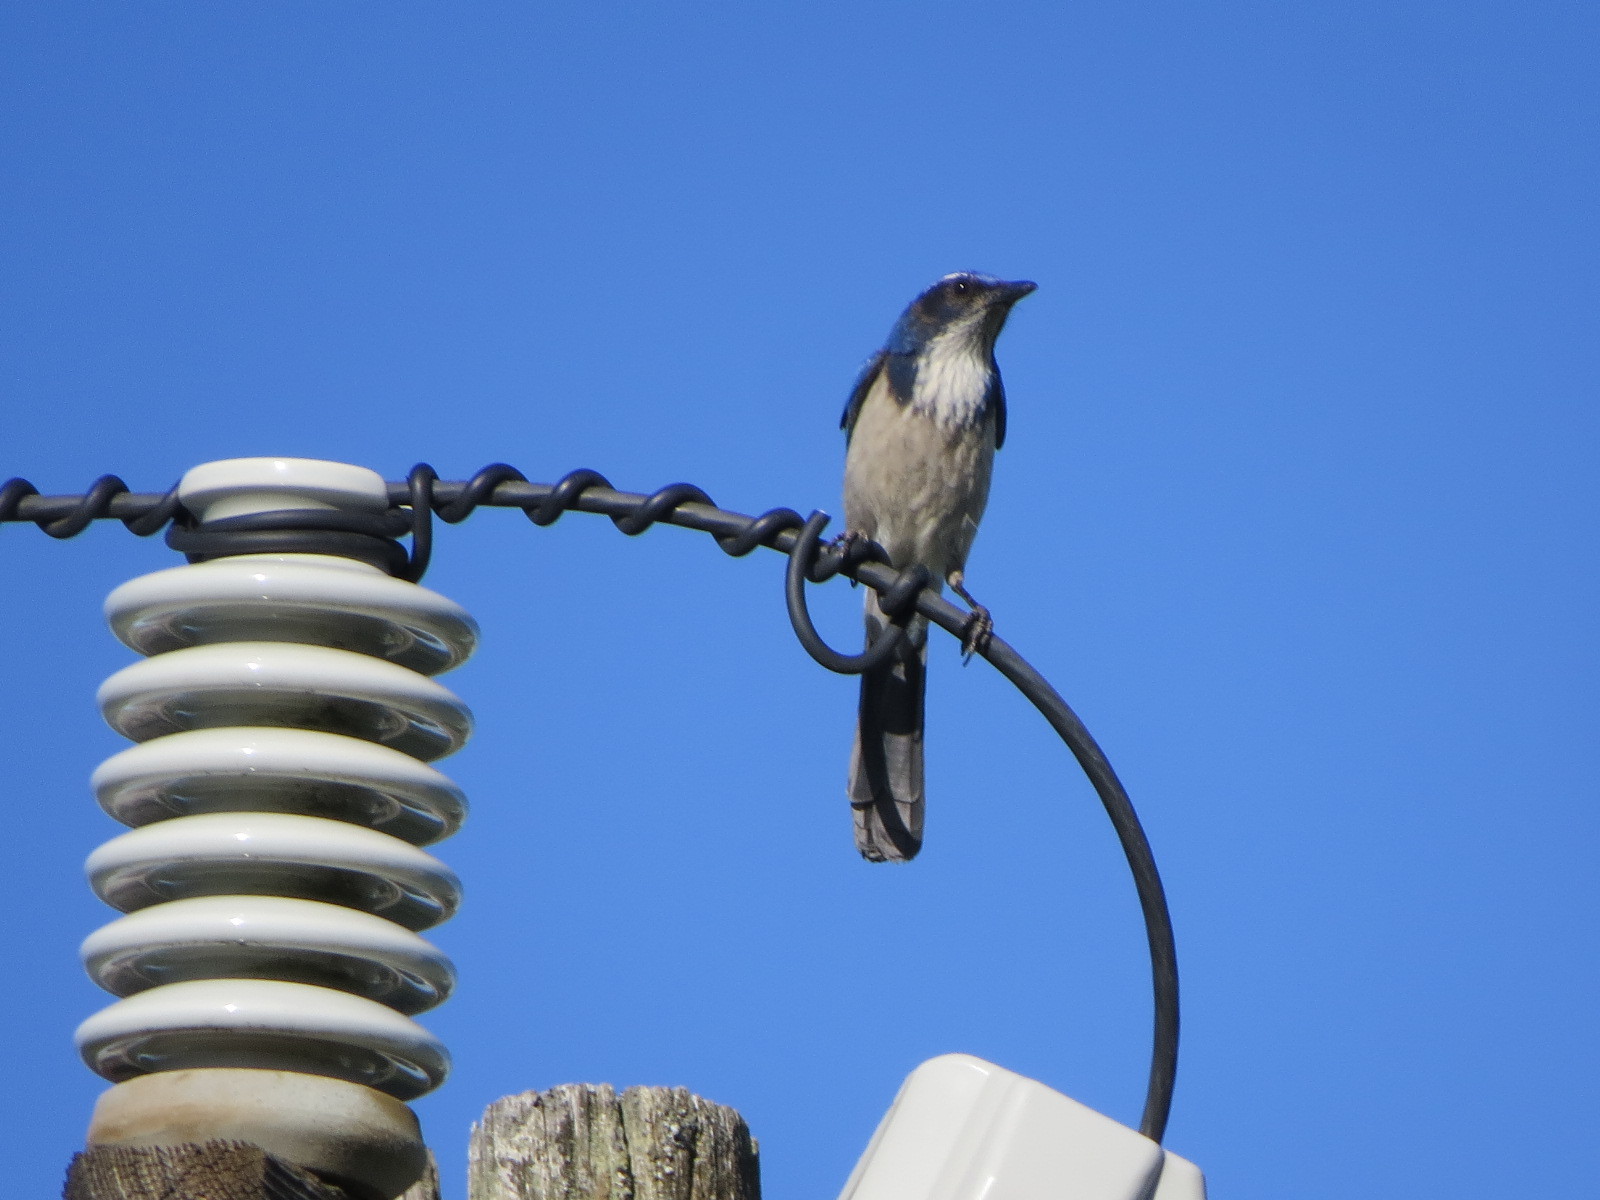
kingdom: Animalia
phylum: Chordata
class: Aves
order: Passeriformes
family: Corvidae
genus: Aphelocoma
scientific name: Aphelocoma californica
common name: California scrub-jay
